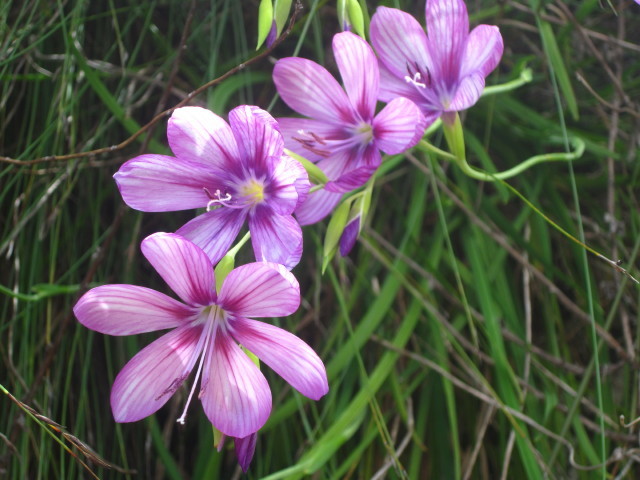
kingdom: Plantae
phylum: Tracheophyta
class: Liliopsida
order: Asparagales
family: Iridaceae
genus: Geissorhiza
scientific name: Geissorhiza outeniquensis
